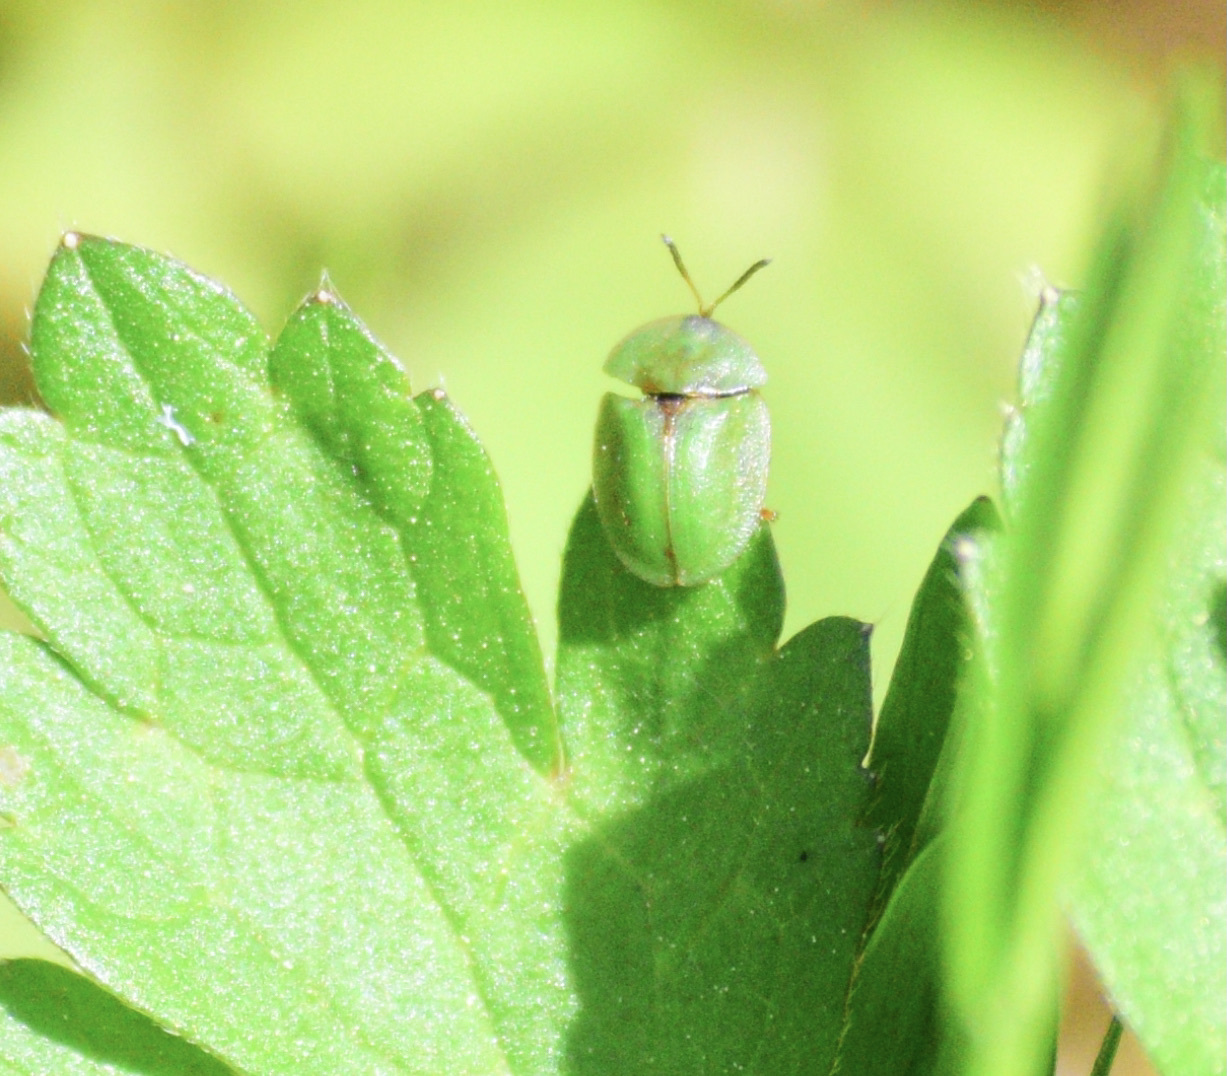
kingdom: Animalia
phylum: Arthropoda
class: Insecta
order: Coleoptera
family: Chrysomelidae
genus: Cassida
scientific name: Cassida rubiginosa
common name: Thistle tortoise beetle
